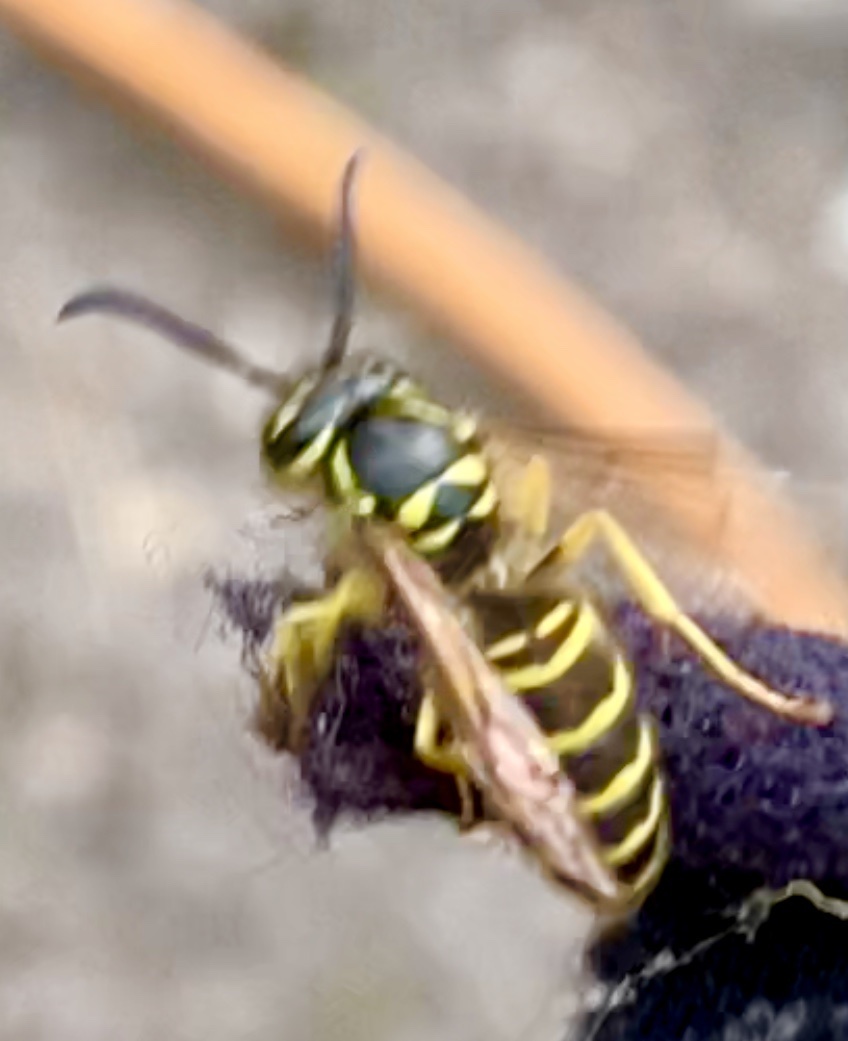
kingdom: Animalia
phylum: Arthropoda
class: Insecta
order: Hymenoptera
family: Vespidae
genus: Vespula
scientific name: Vespula maculifrons
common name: Eastern yellowjacket
